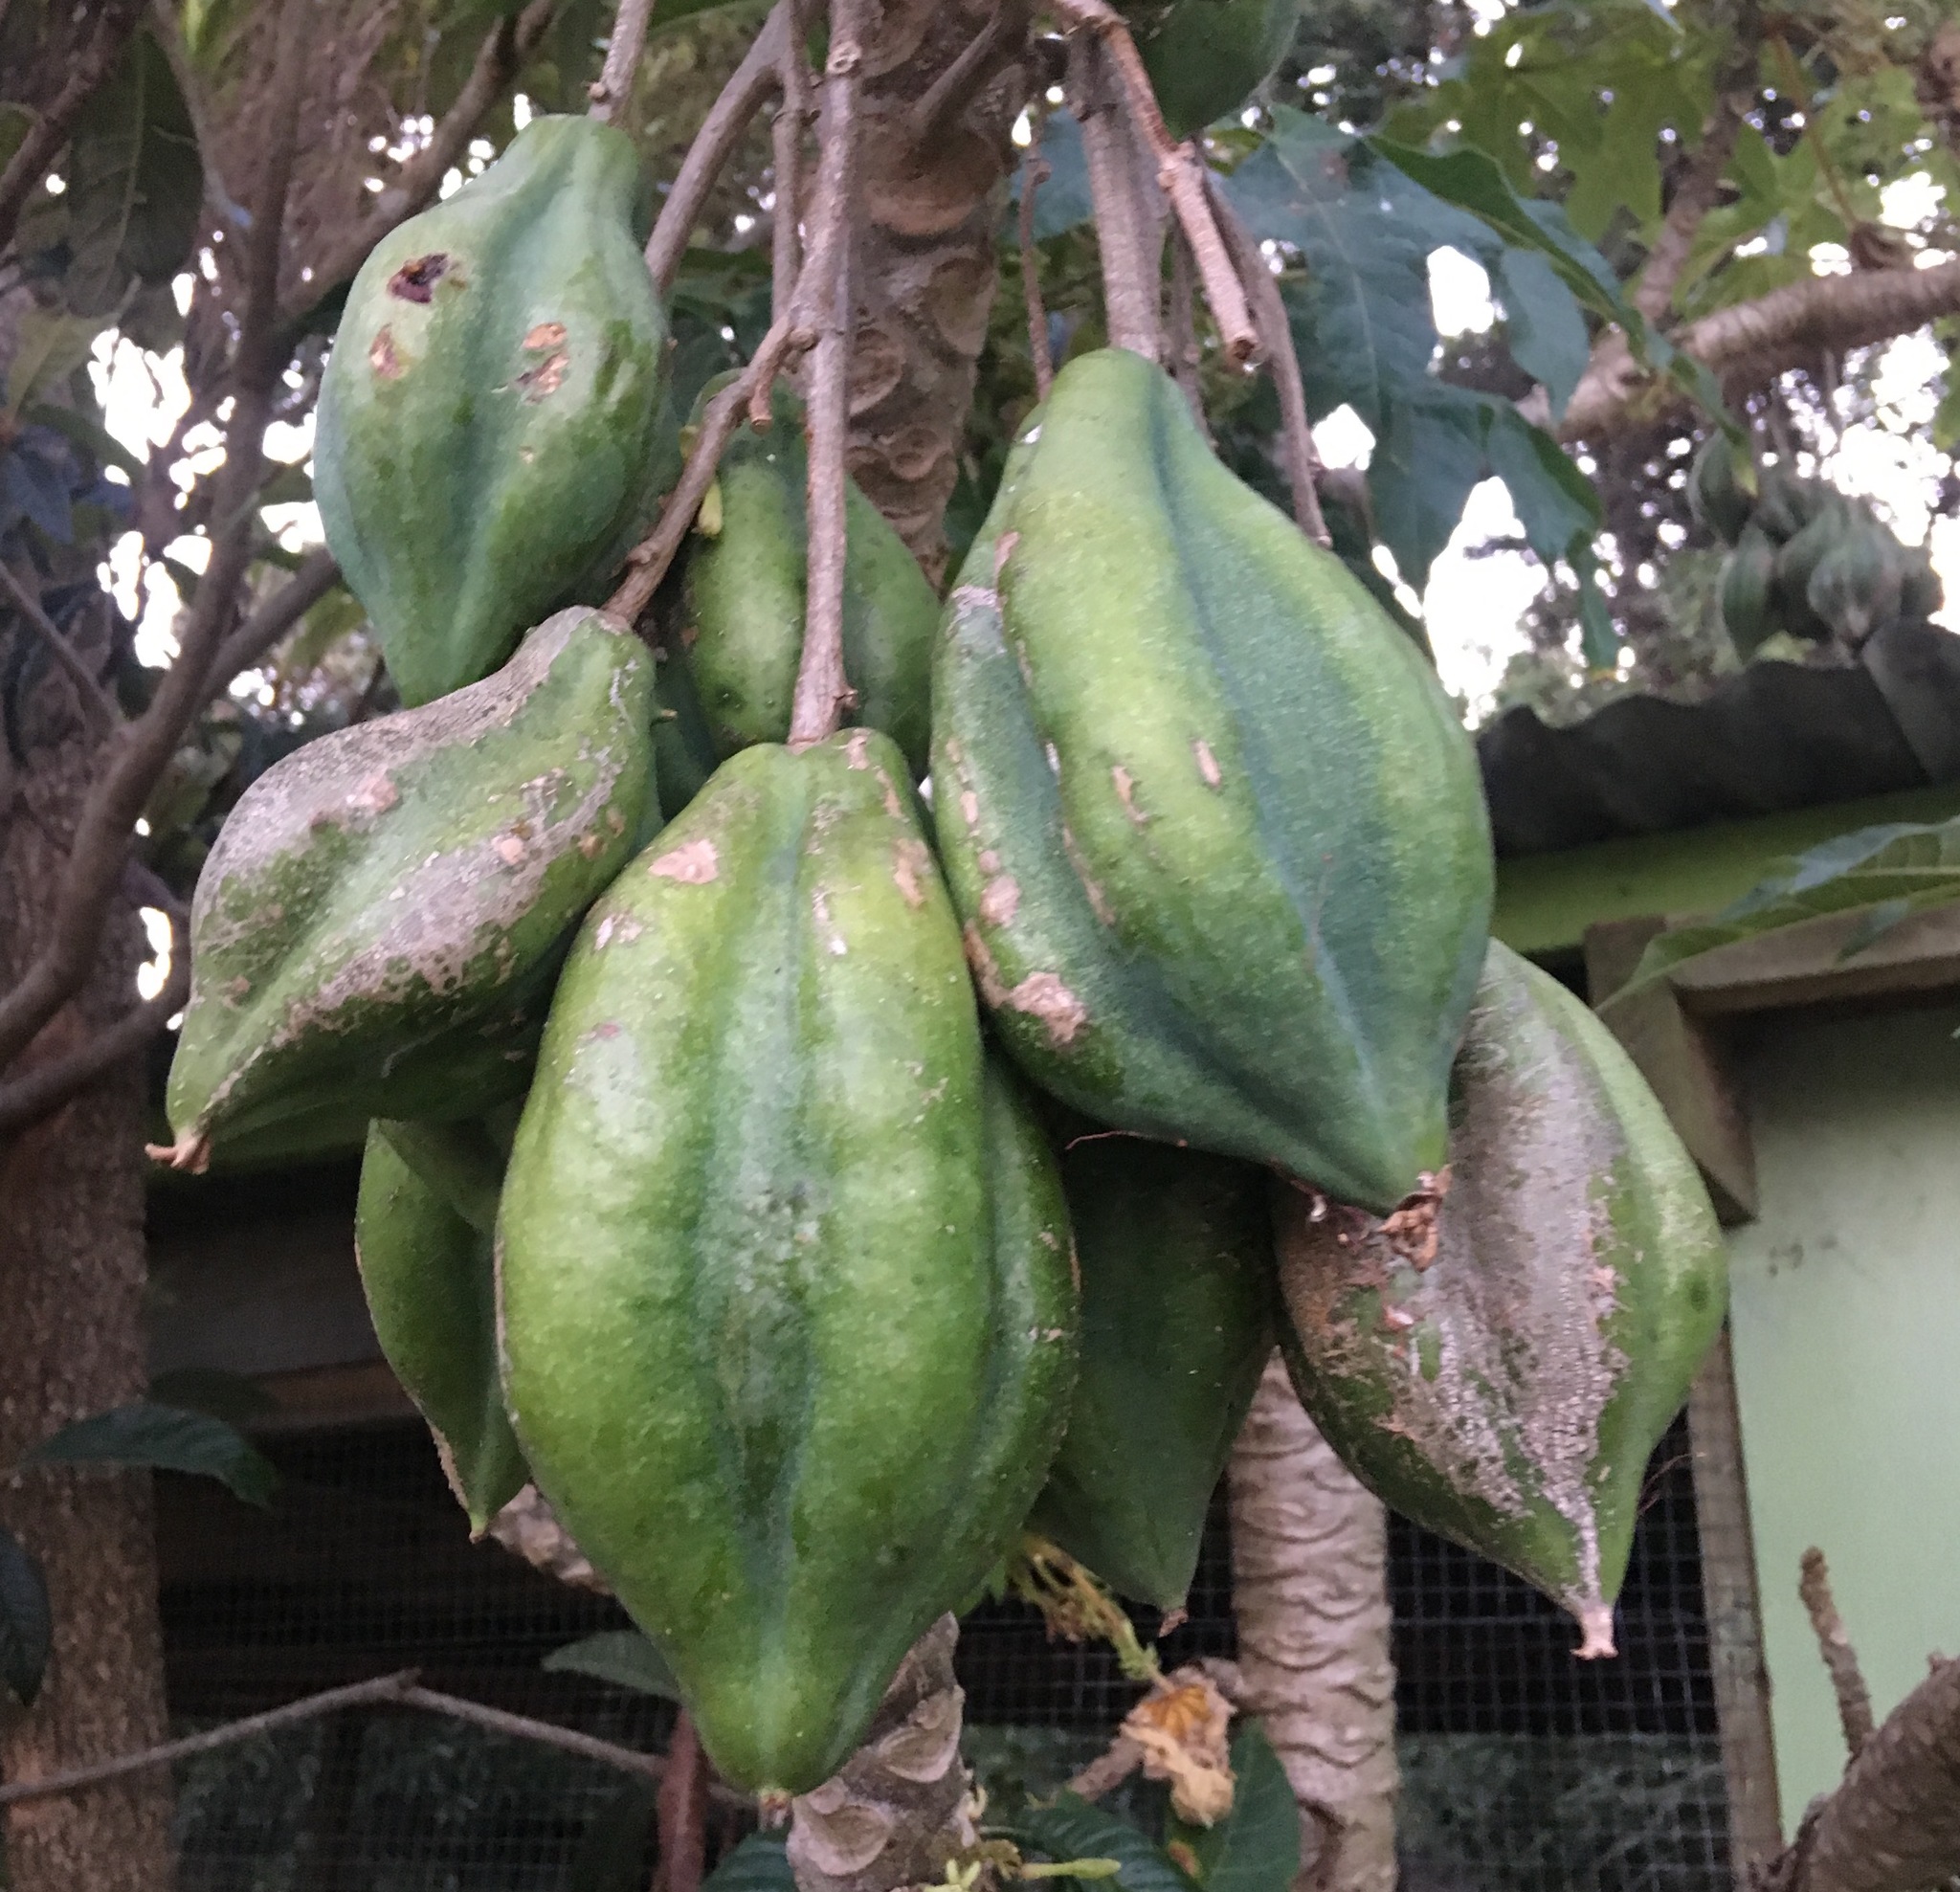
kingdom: Plantae
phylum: Tracheophyta
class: Magnoliopsida
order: Brassicales
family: Caricaceae
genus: Vasconcellea
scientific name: Vasconcellea pubescens
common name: Mountain papaya
